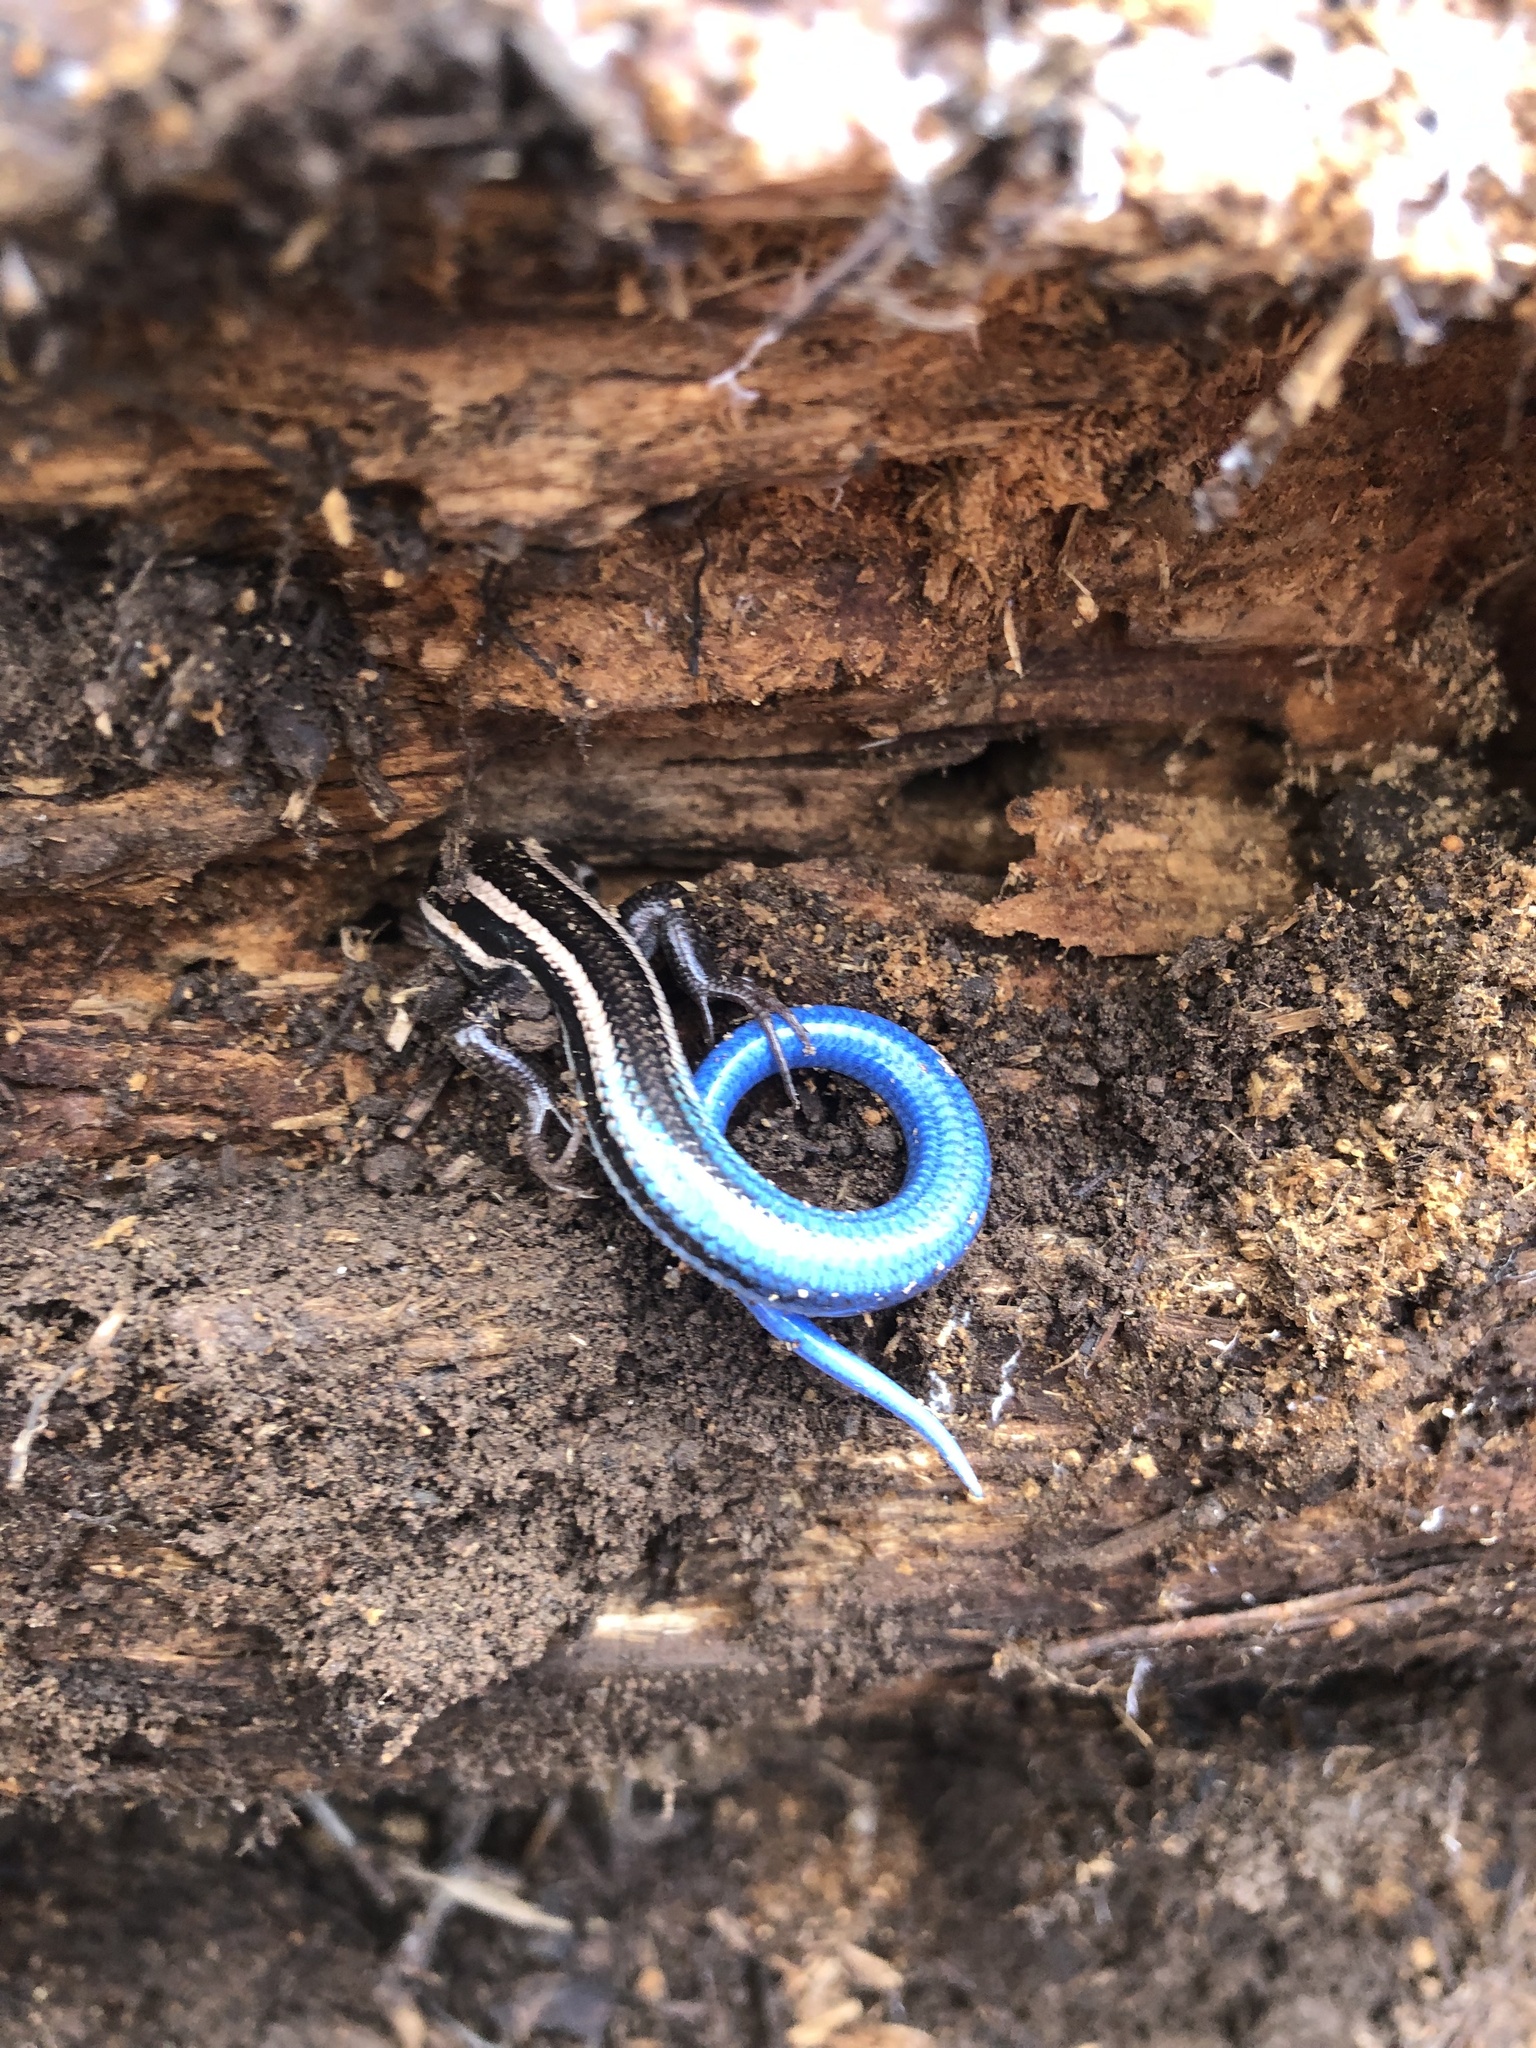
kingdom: Animalia
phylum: Chordata
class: Squamata
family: Scincidae
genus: Plestiodon
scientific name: Plestiodon skiltonianus
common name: Coronado island skink [interparietalis]
